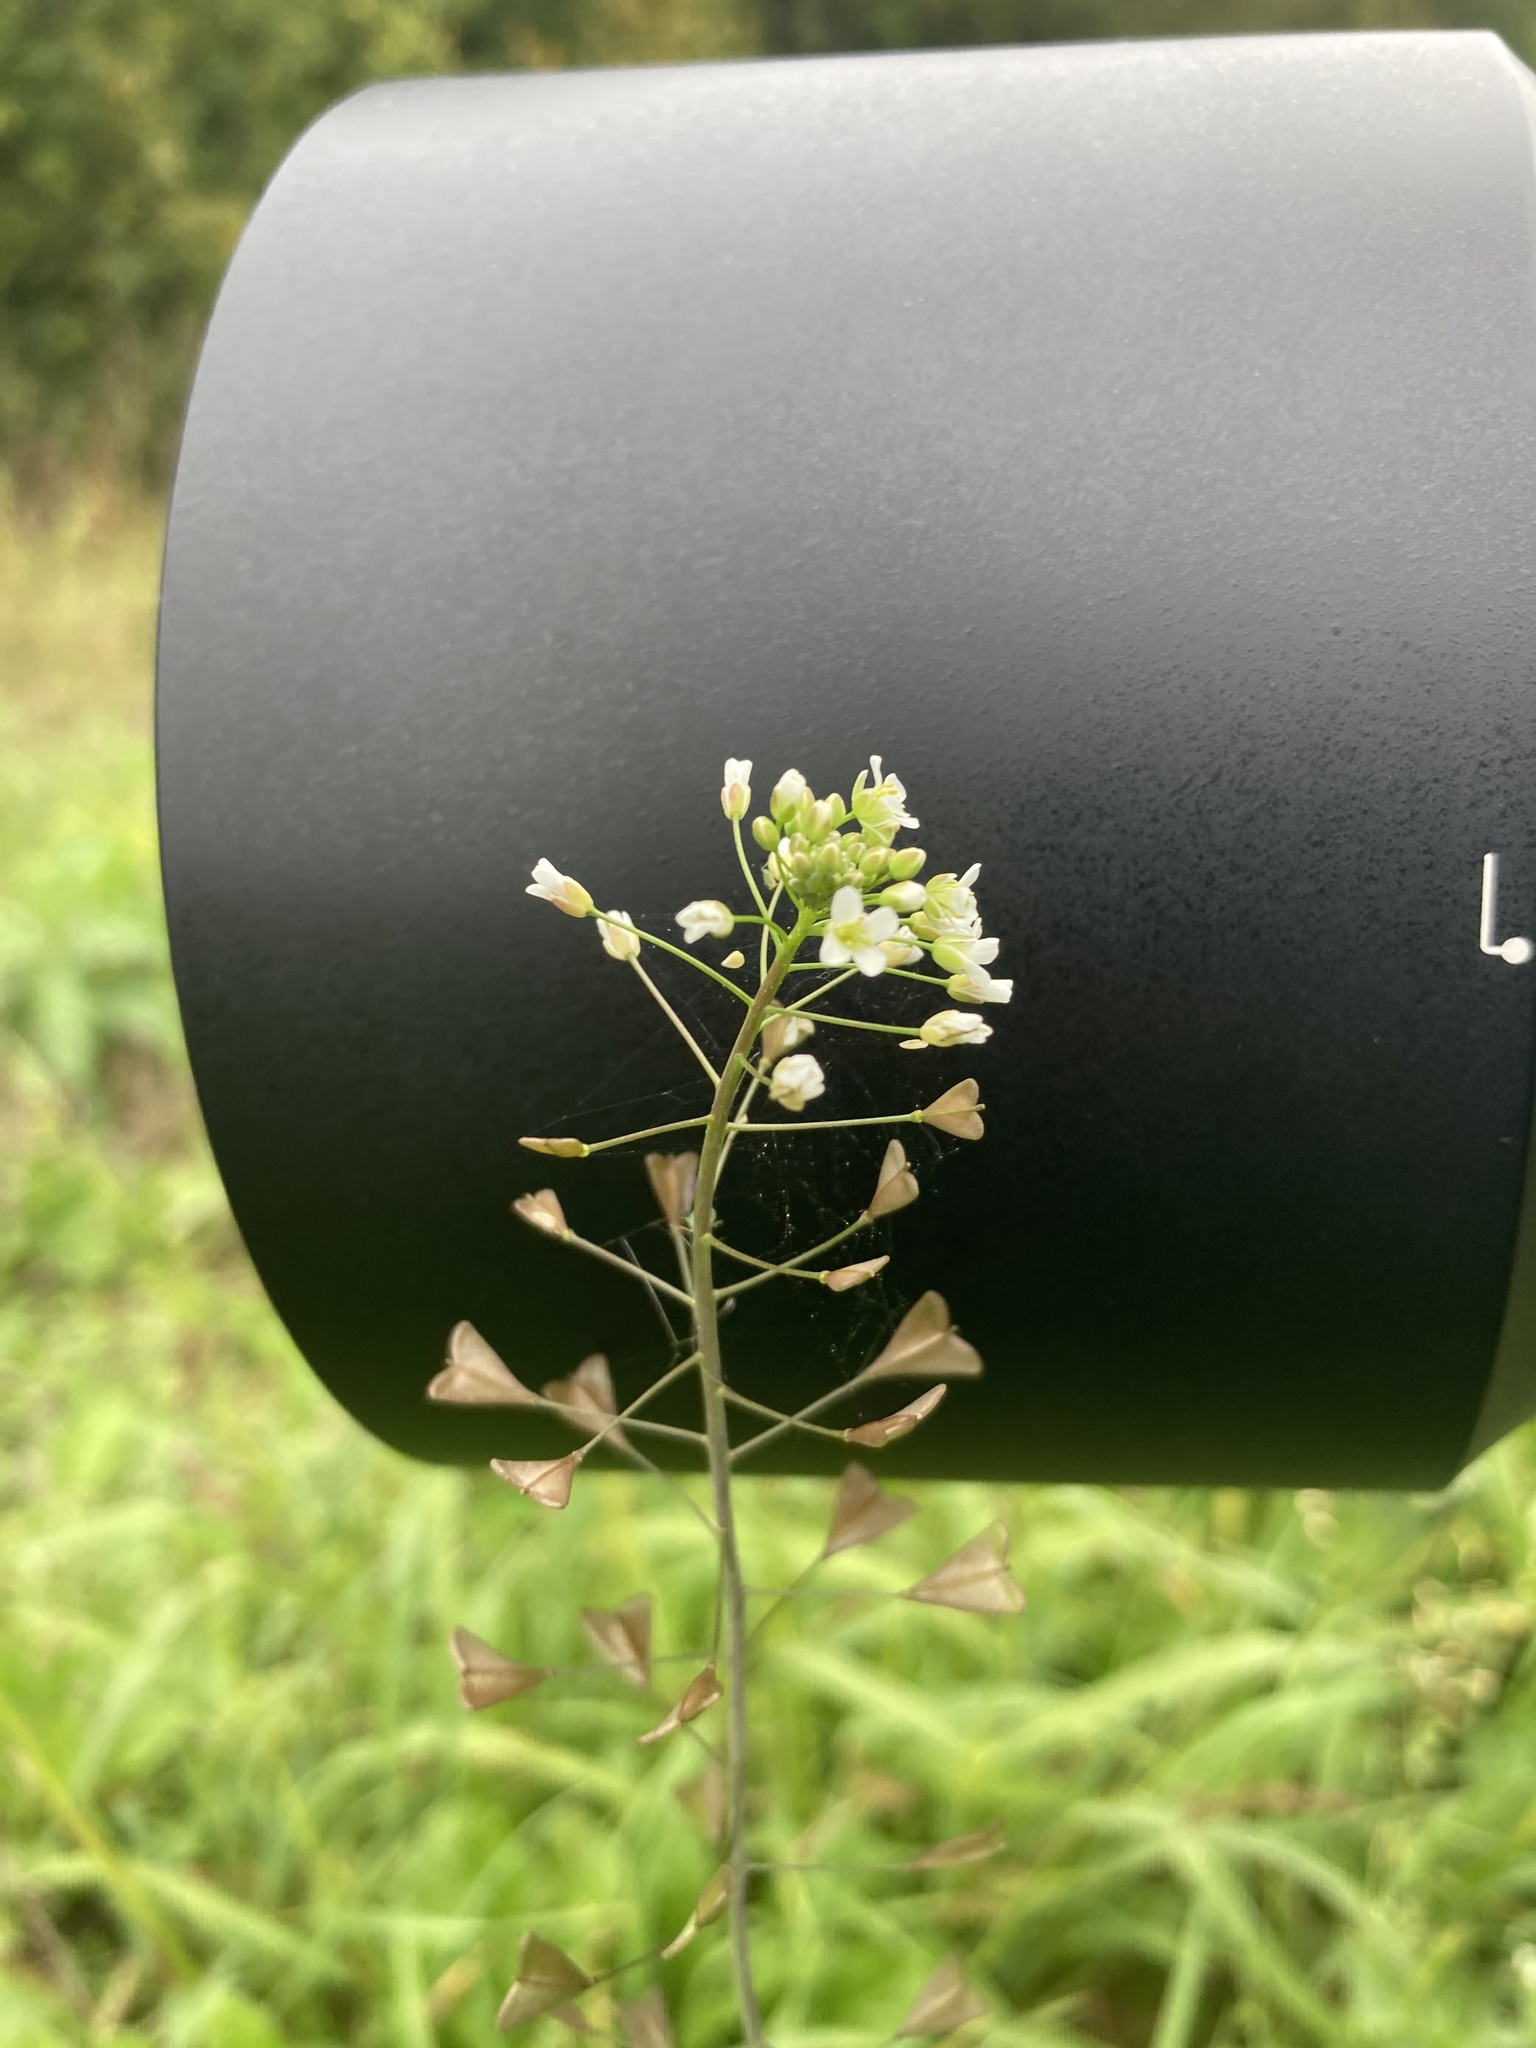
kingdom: Plantae
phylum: Tracheophyta
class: Magnoliopsida
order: Brassicales
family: Brassicaceae
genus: Capsella
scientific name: Capsella bursa-pastoris
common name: Shepherd's purse
